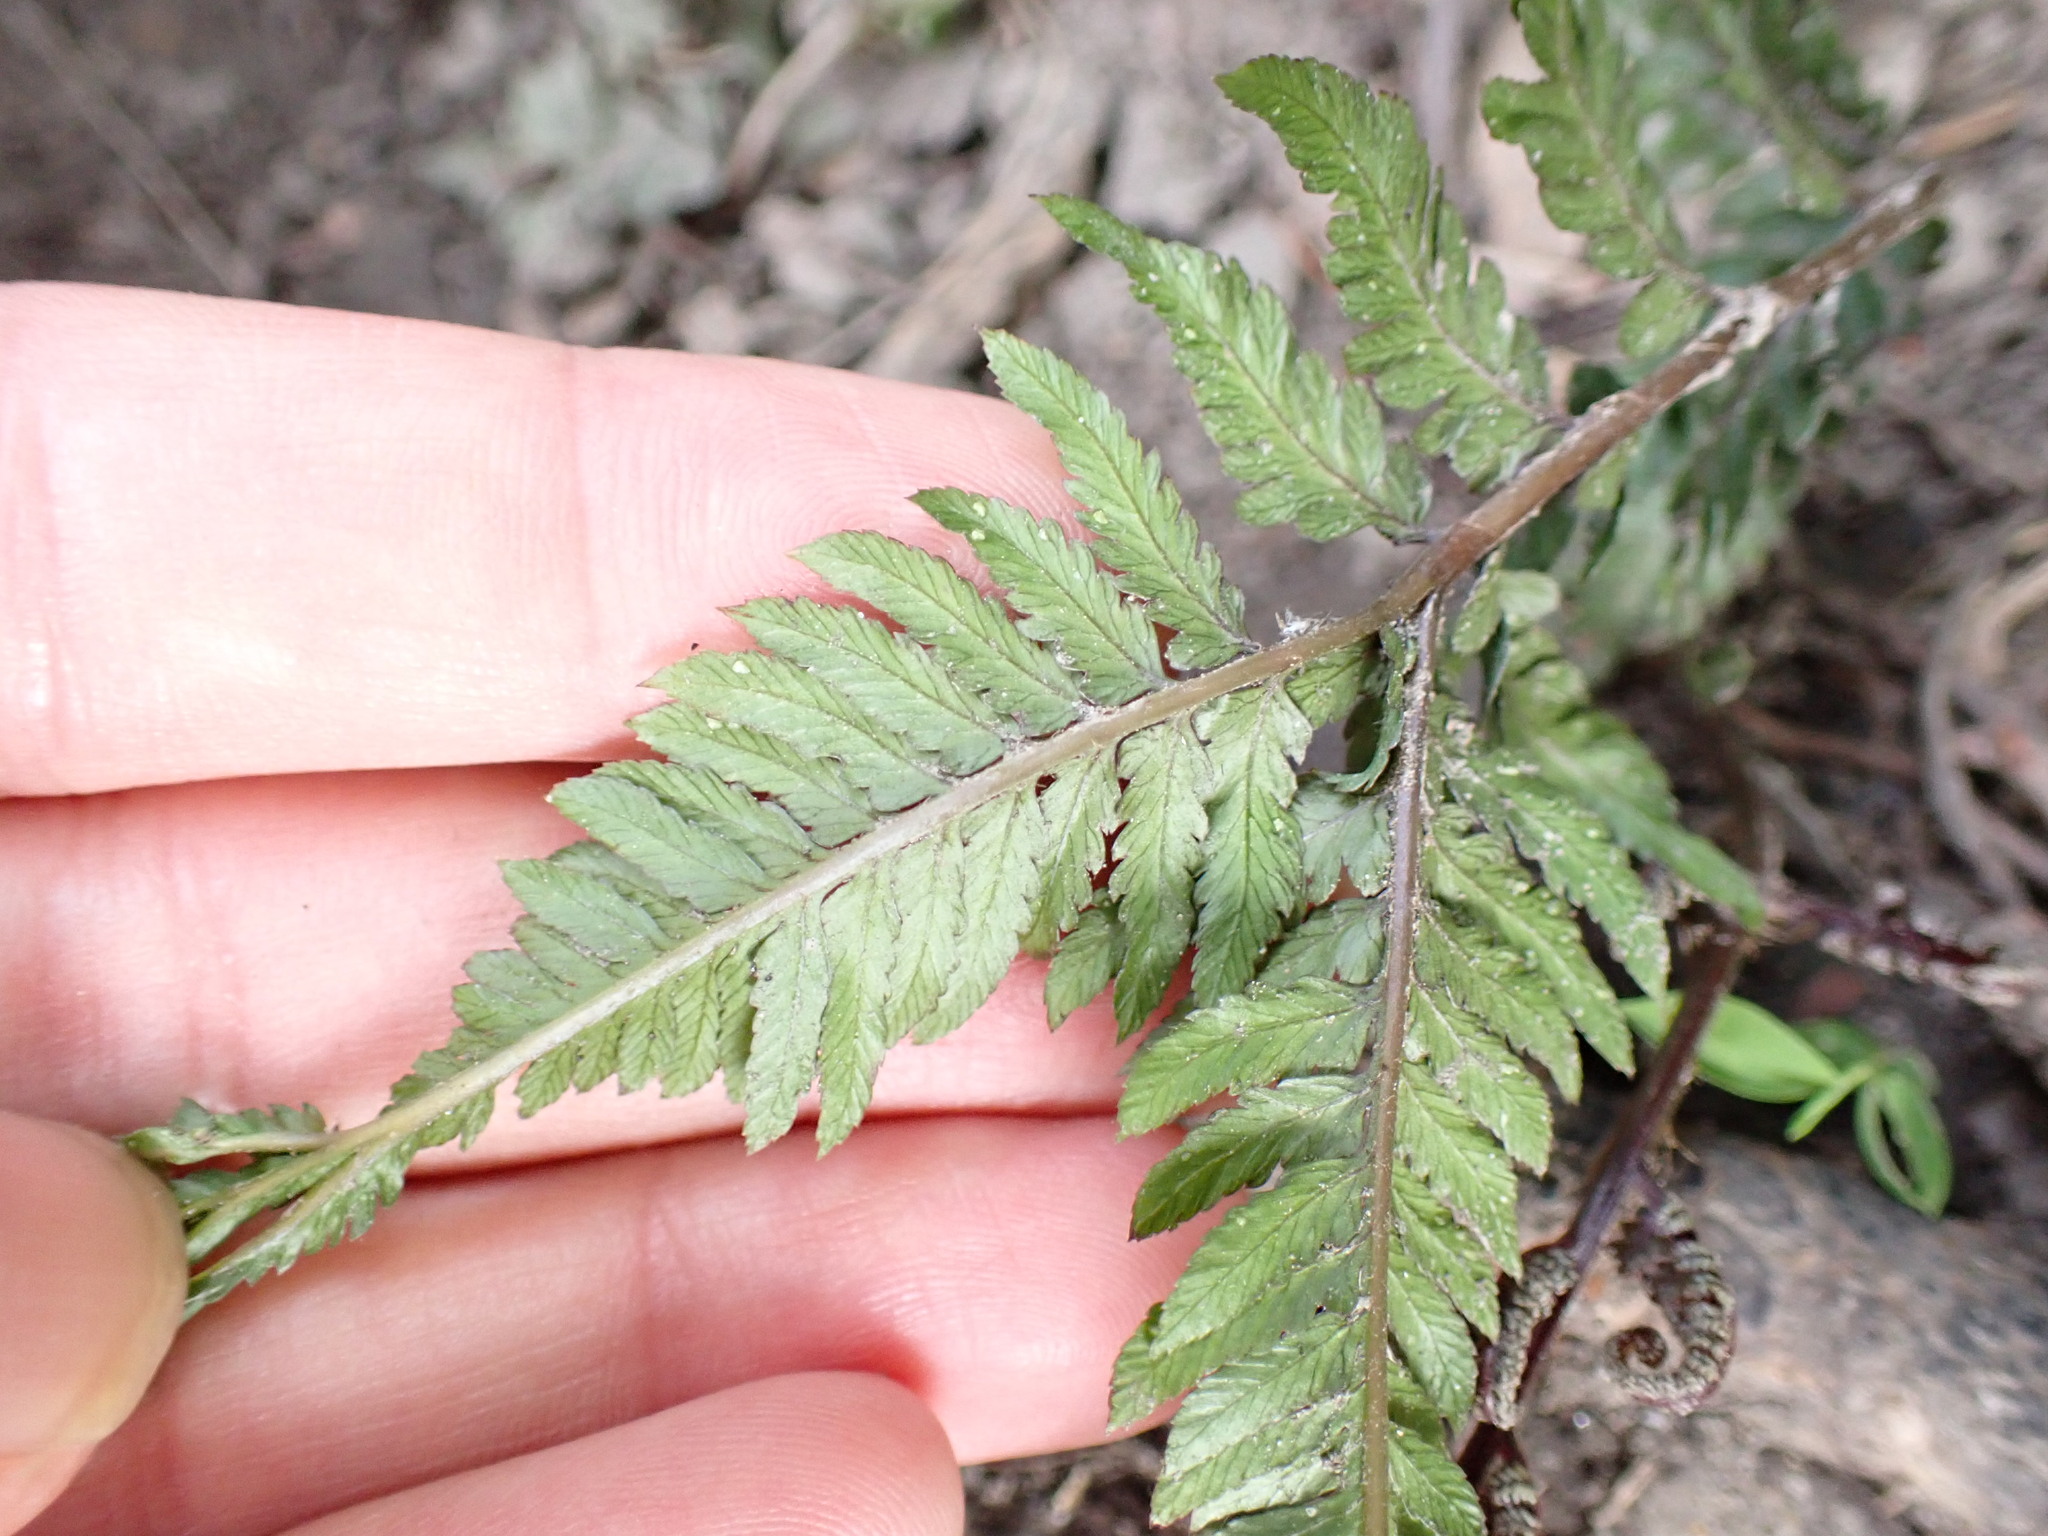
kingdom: Plantae
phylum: Tracheophyta
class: Polypodiopsida
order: Polypodiales
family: Athyriaceae
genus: Anisocampium
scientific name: Anisocampium niponicum
